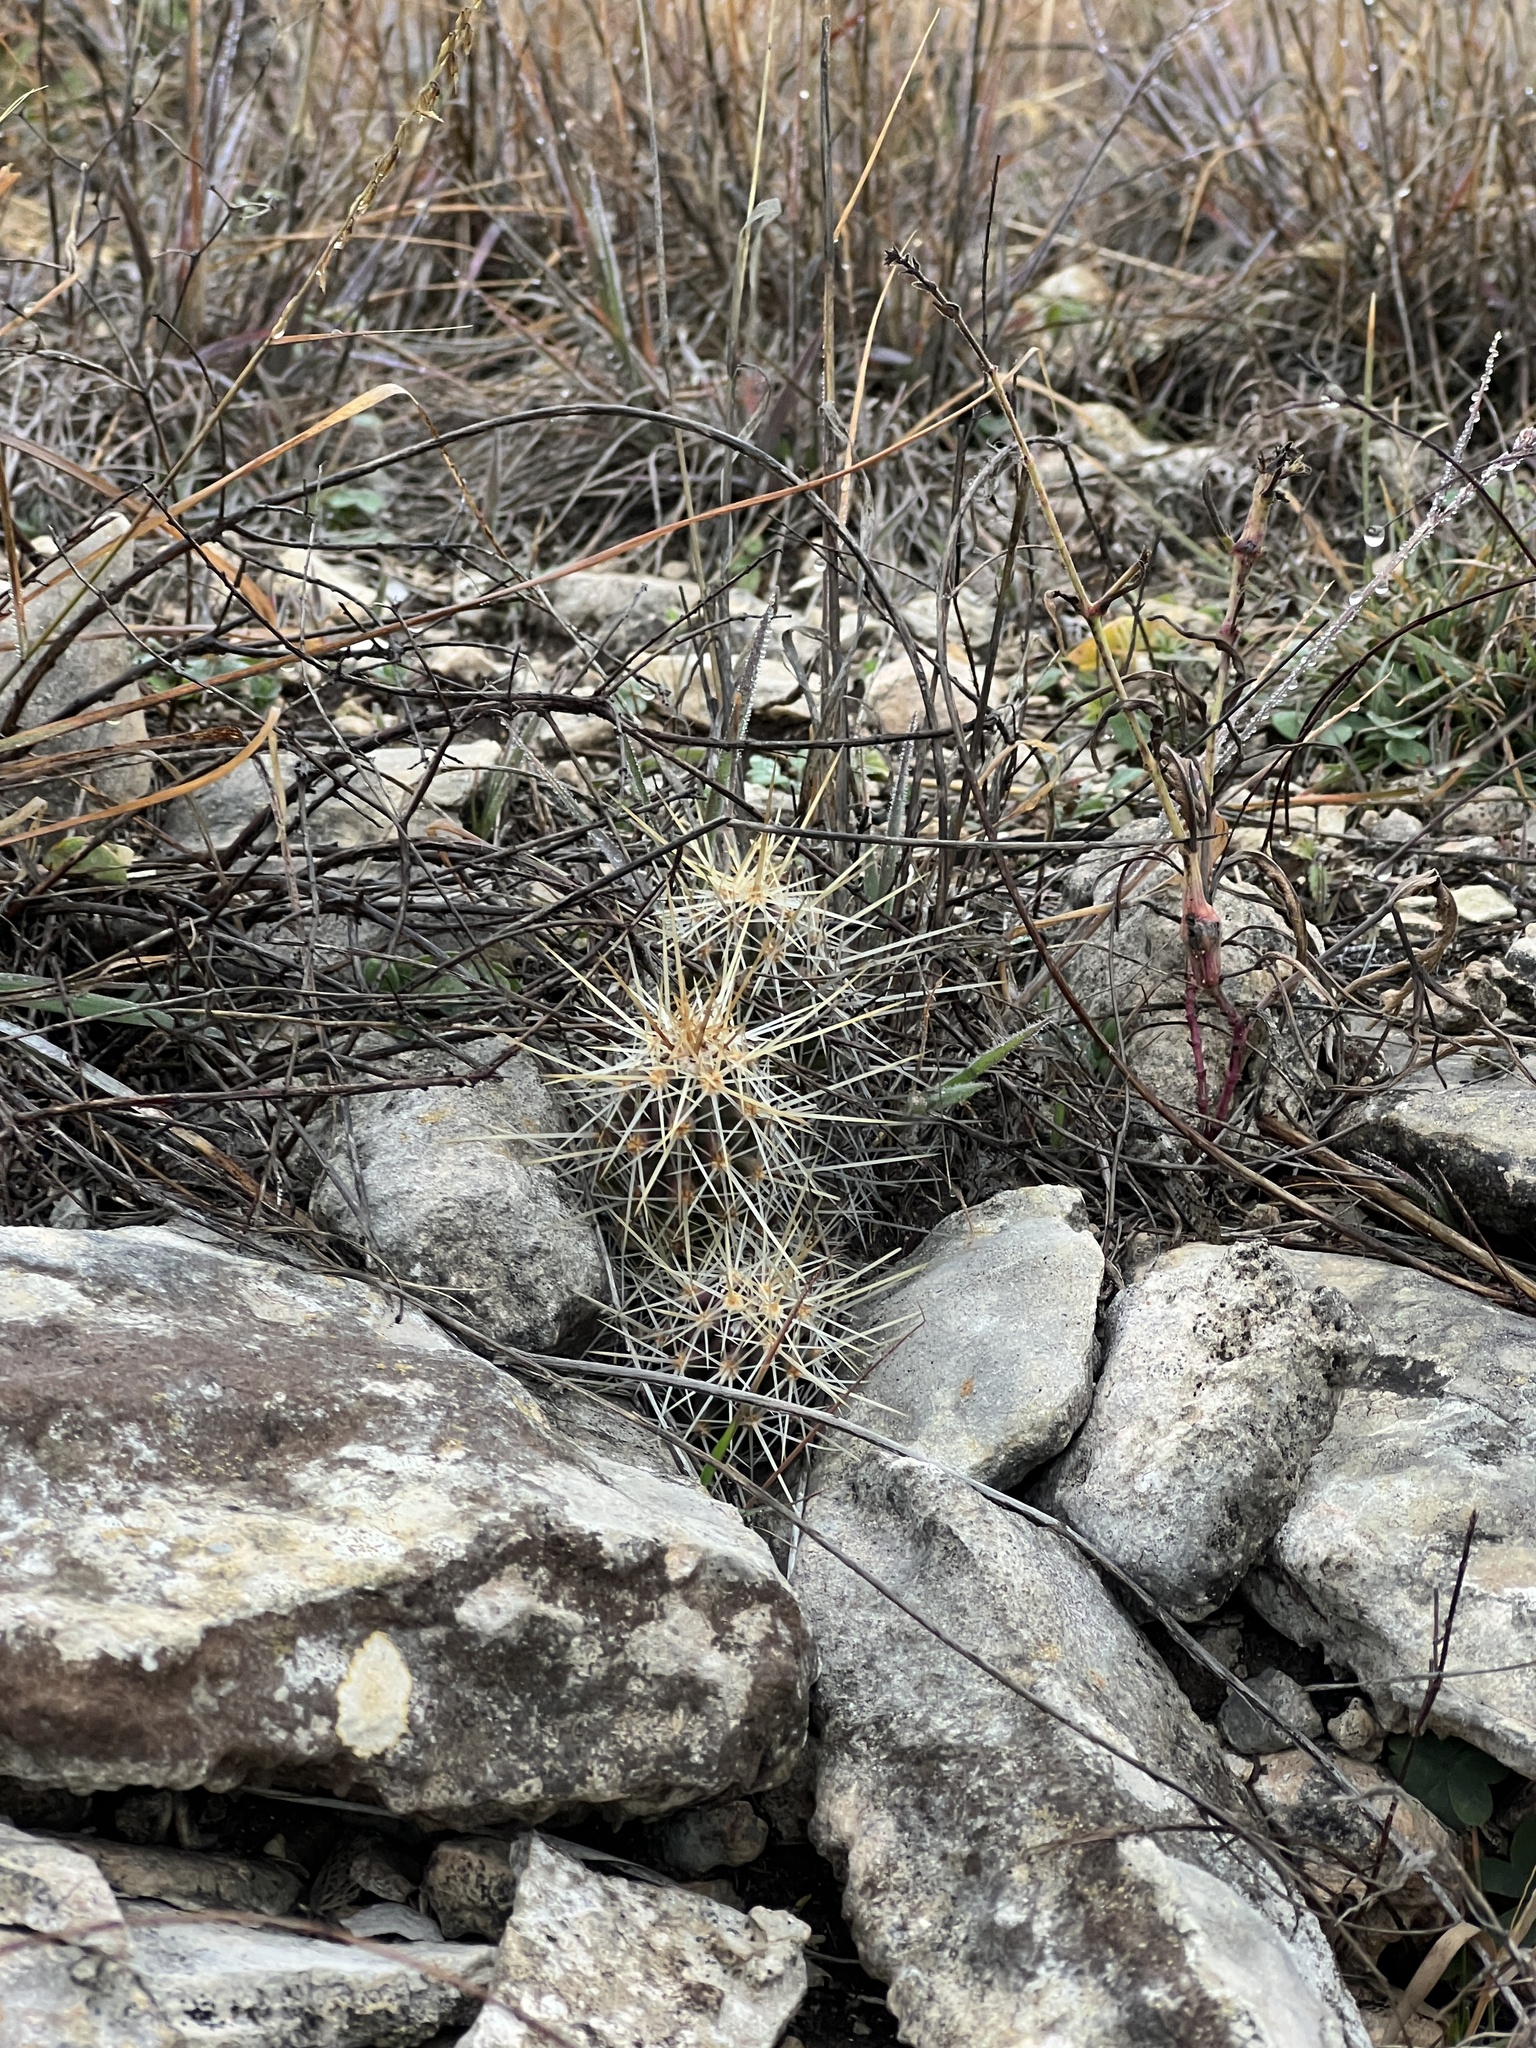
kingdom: Plantae
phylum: Tracheophyta
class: Magnoliopsida
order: Caryophyllales
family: Cactaceae
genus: Echinocereus
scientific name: Echinocereus enneacanthus
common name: Pitaya
